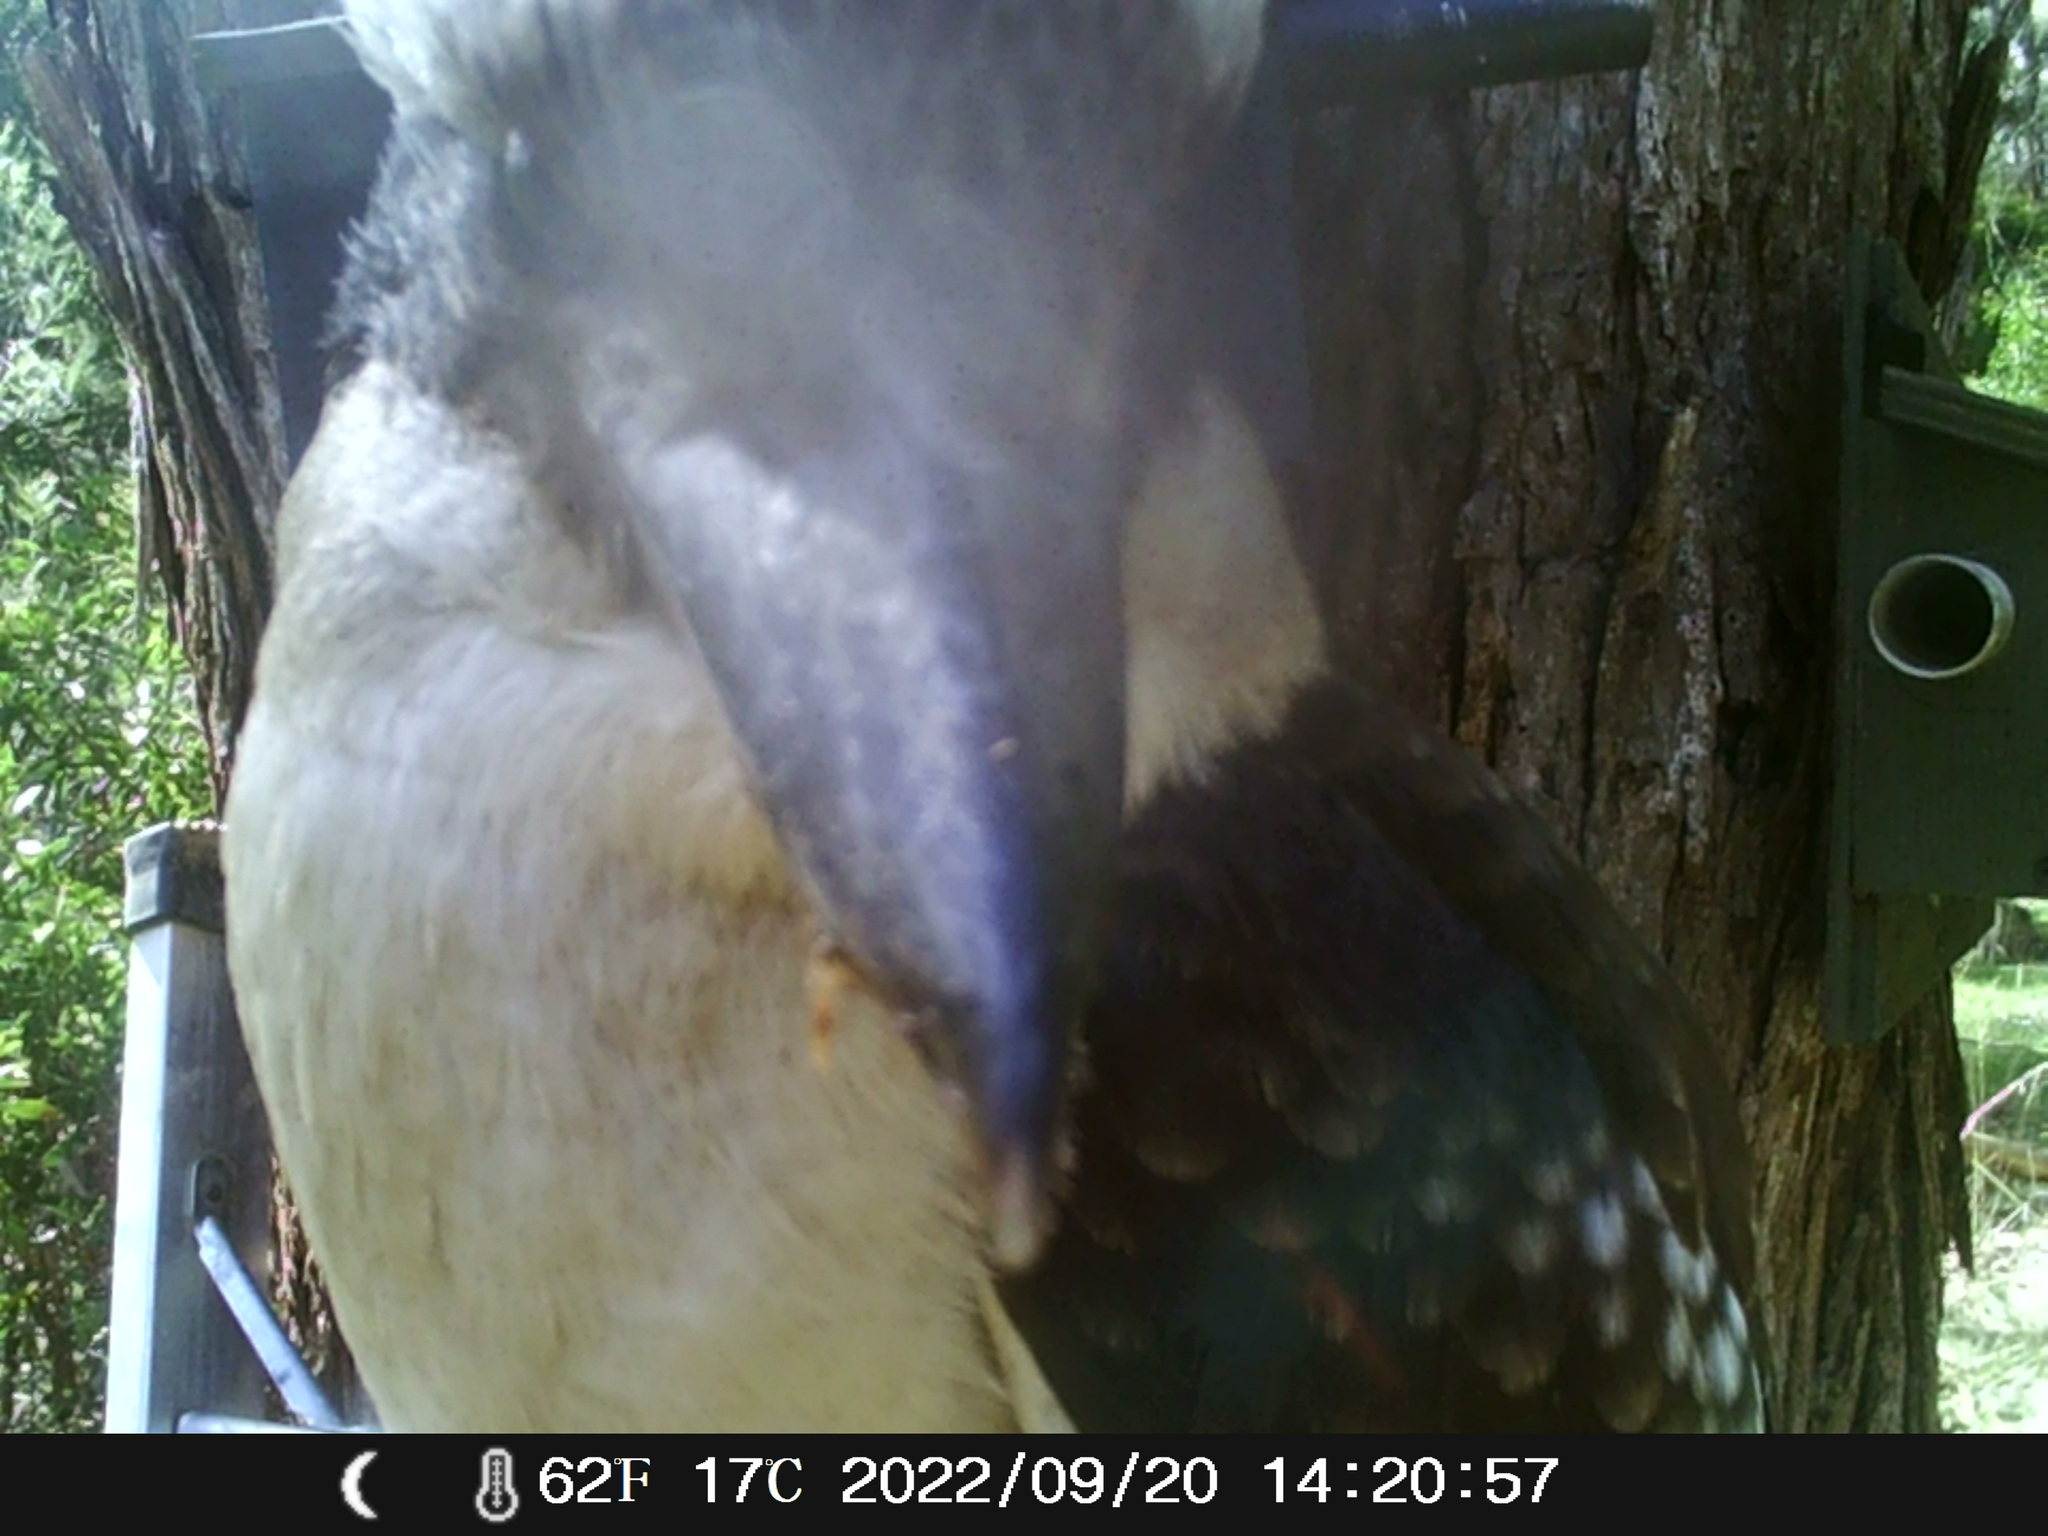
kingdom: Animalia
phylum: Chordata
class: Aves
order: Coraciiformes
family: Alcedinidae
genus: Dacelo
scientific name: Dacelo novaeguineae
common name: Laughing kookaburra
